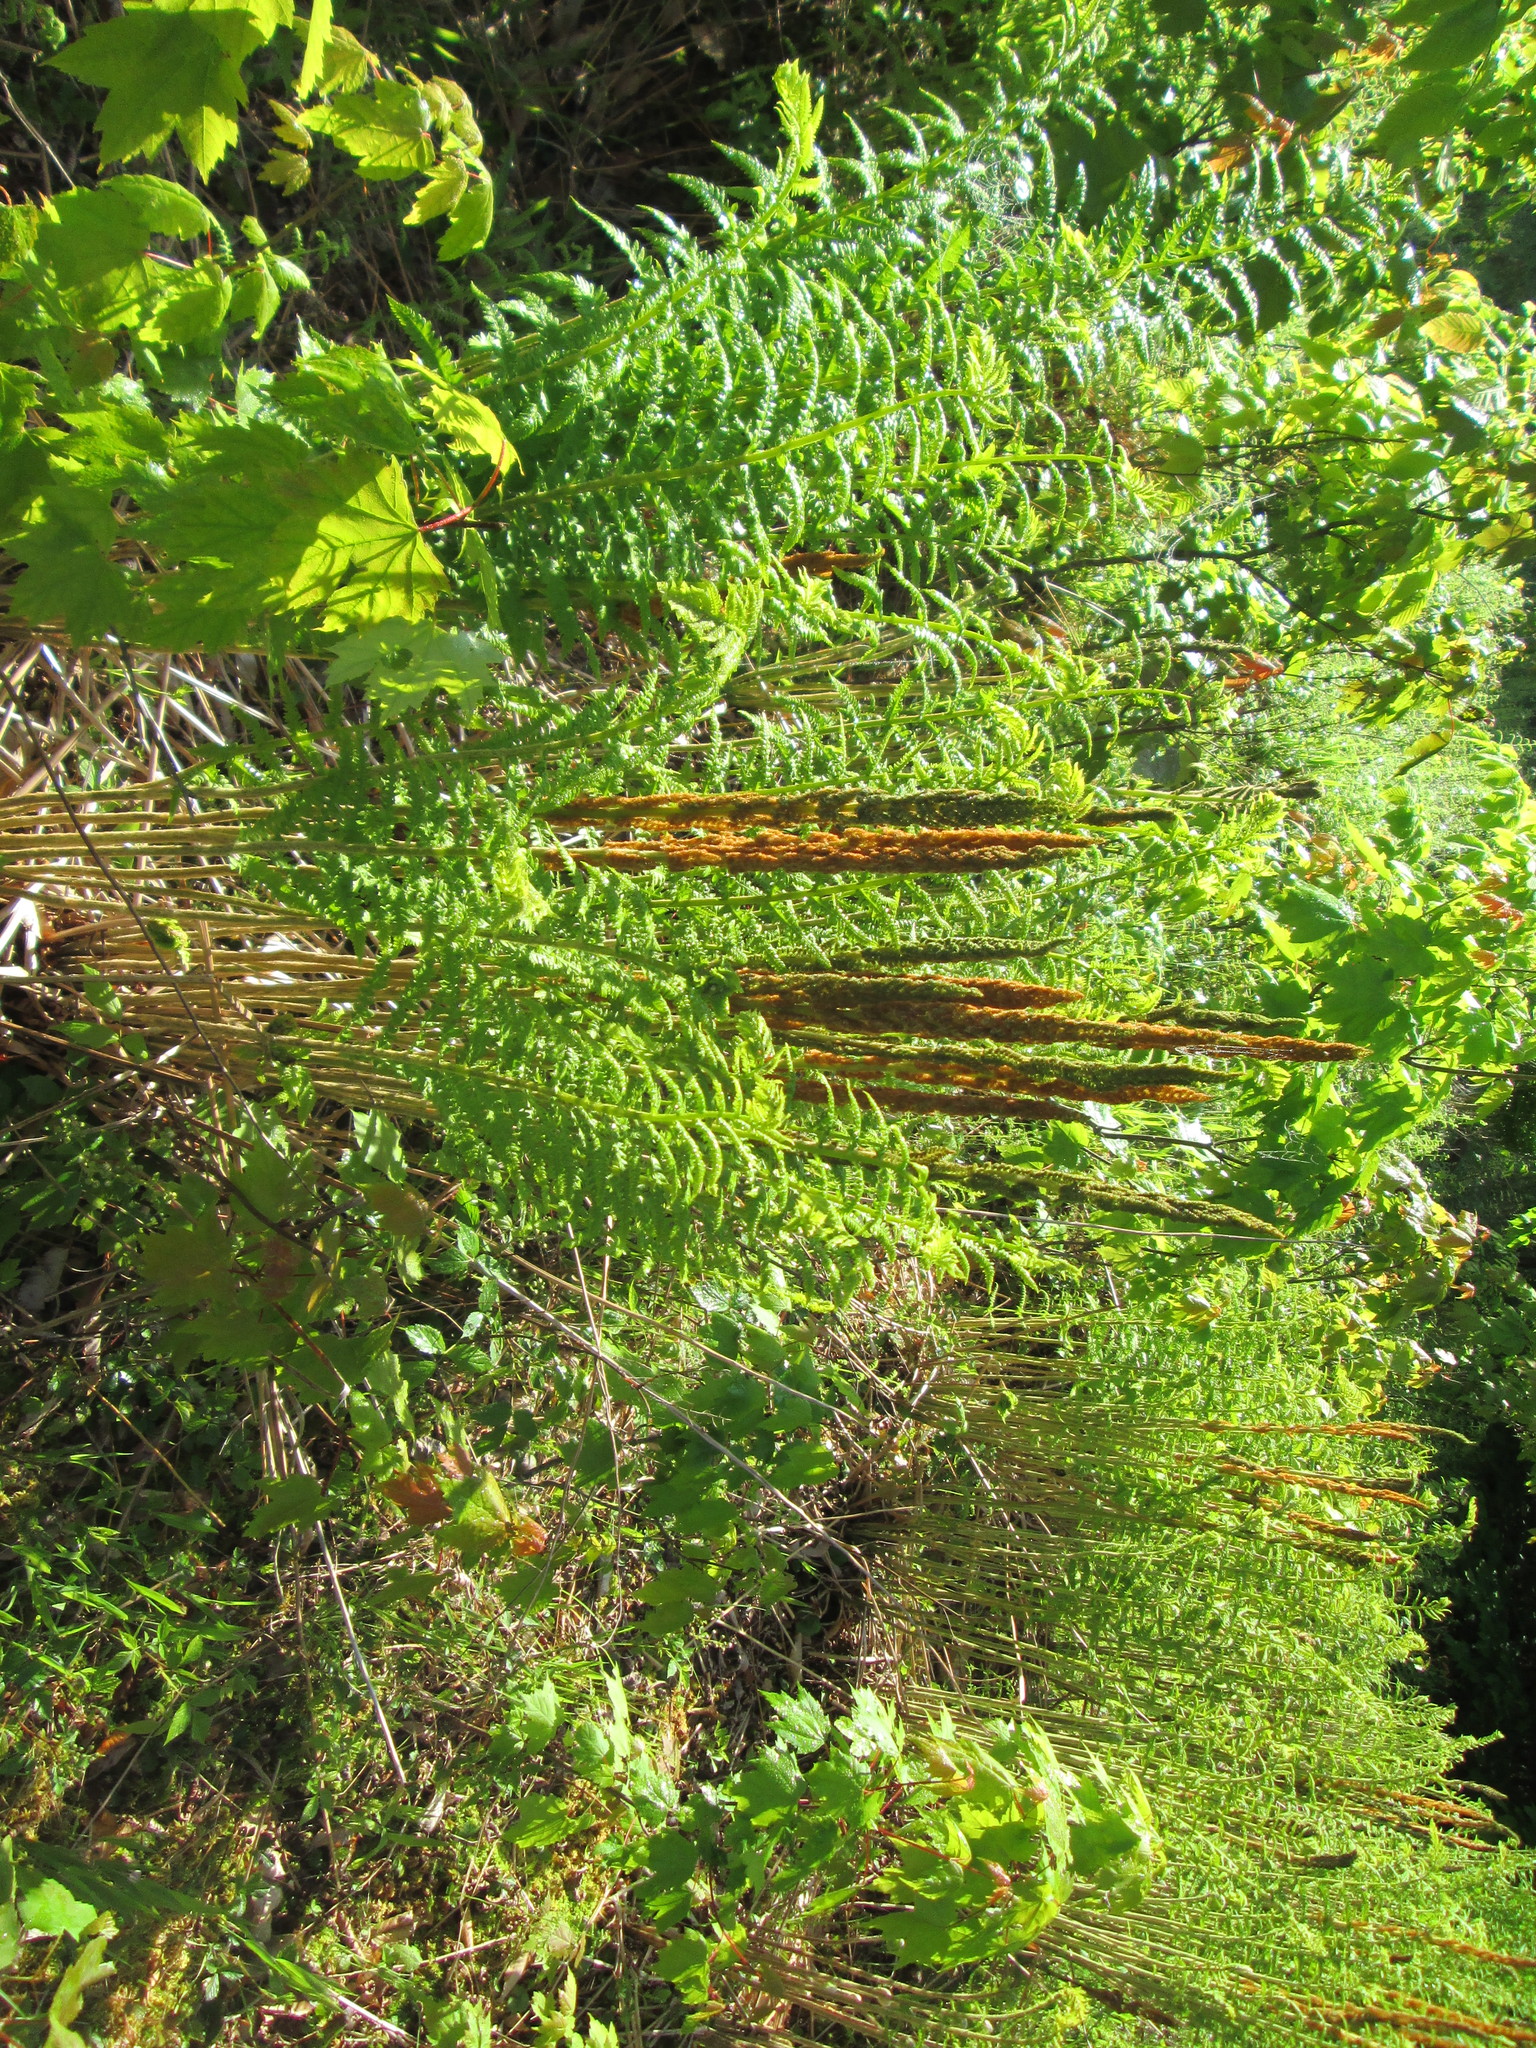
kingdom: Plantae
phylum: Tracheophyta
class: Polypodiopsida
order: Osmundales
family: Osmundaceae
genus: Osmundastrum
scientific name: Osmundastrum cinnamomeum
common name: Cinnamon fern
